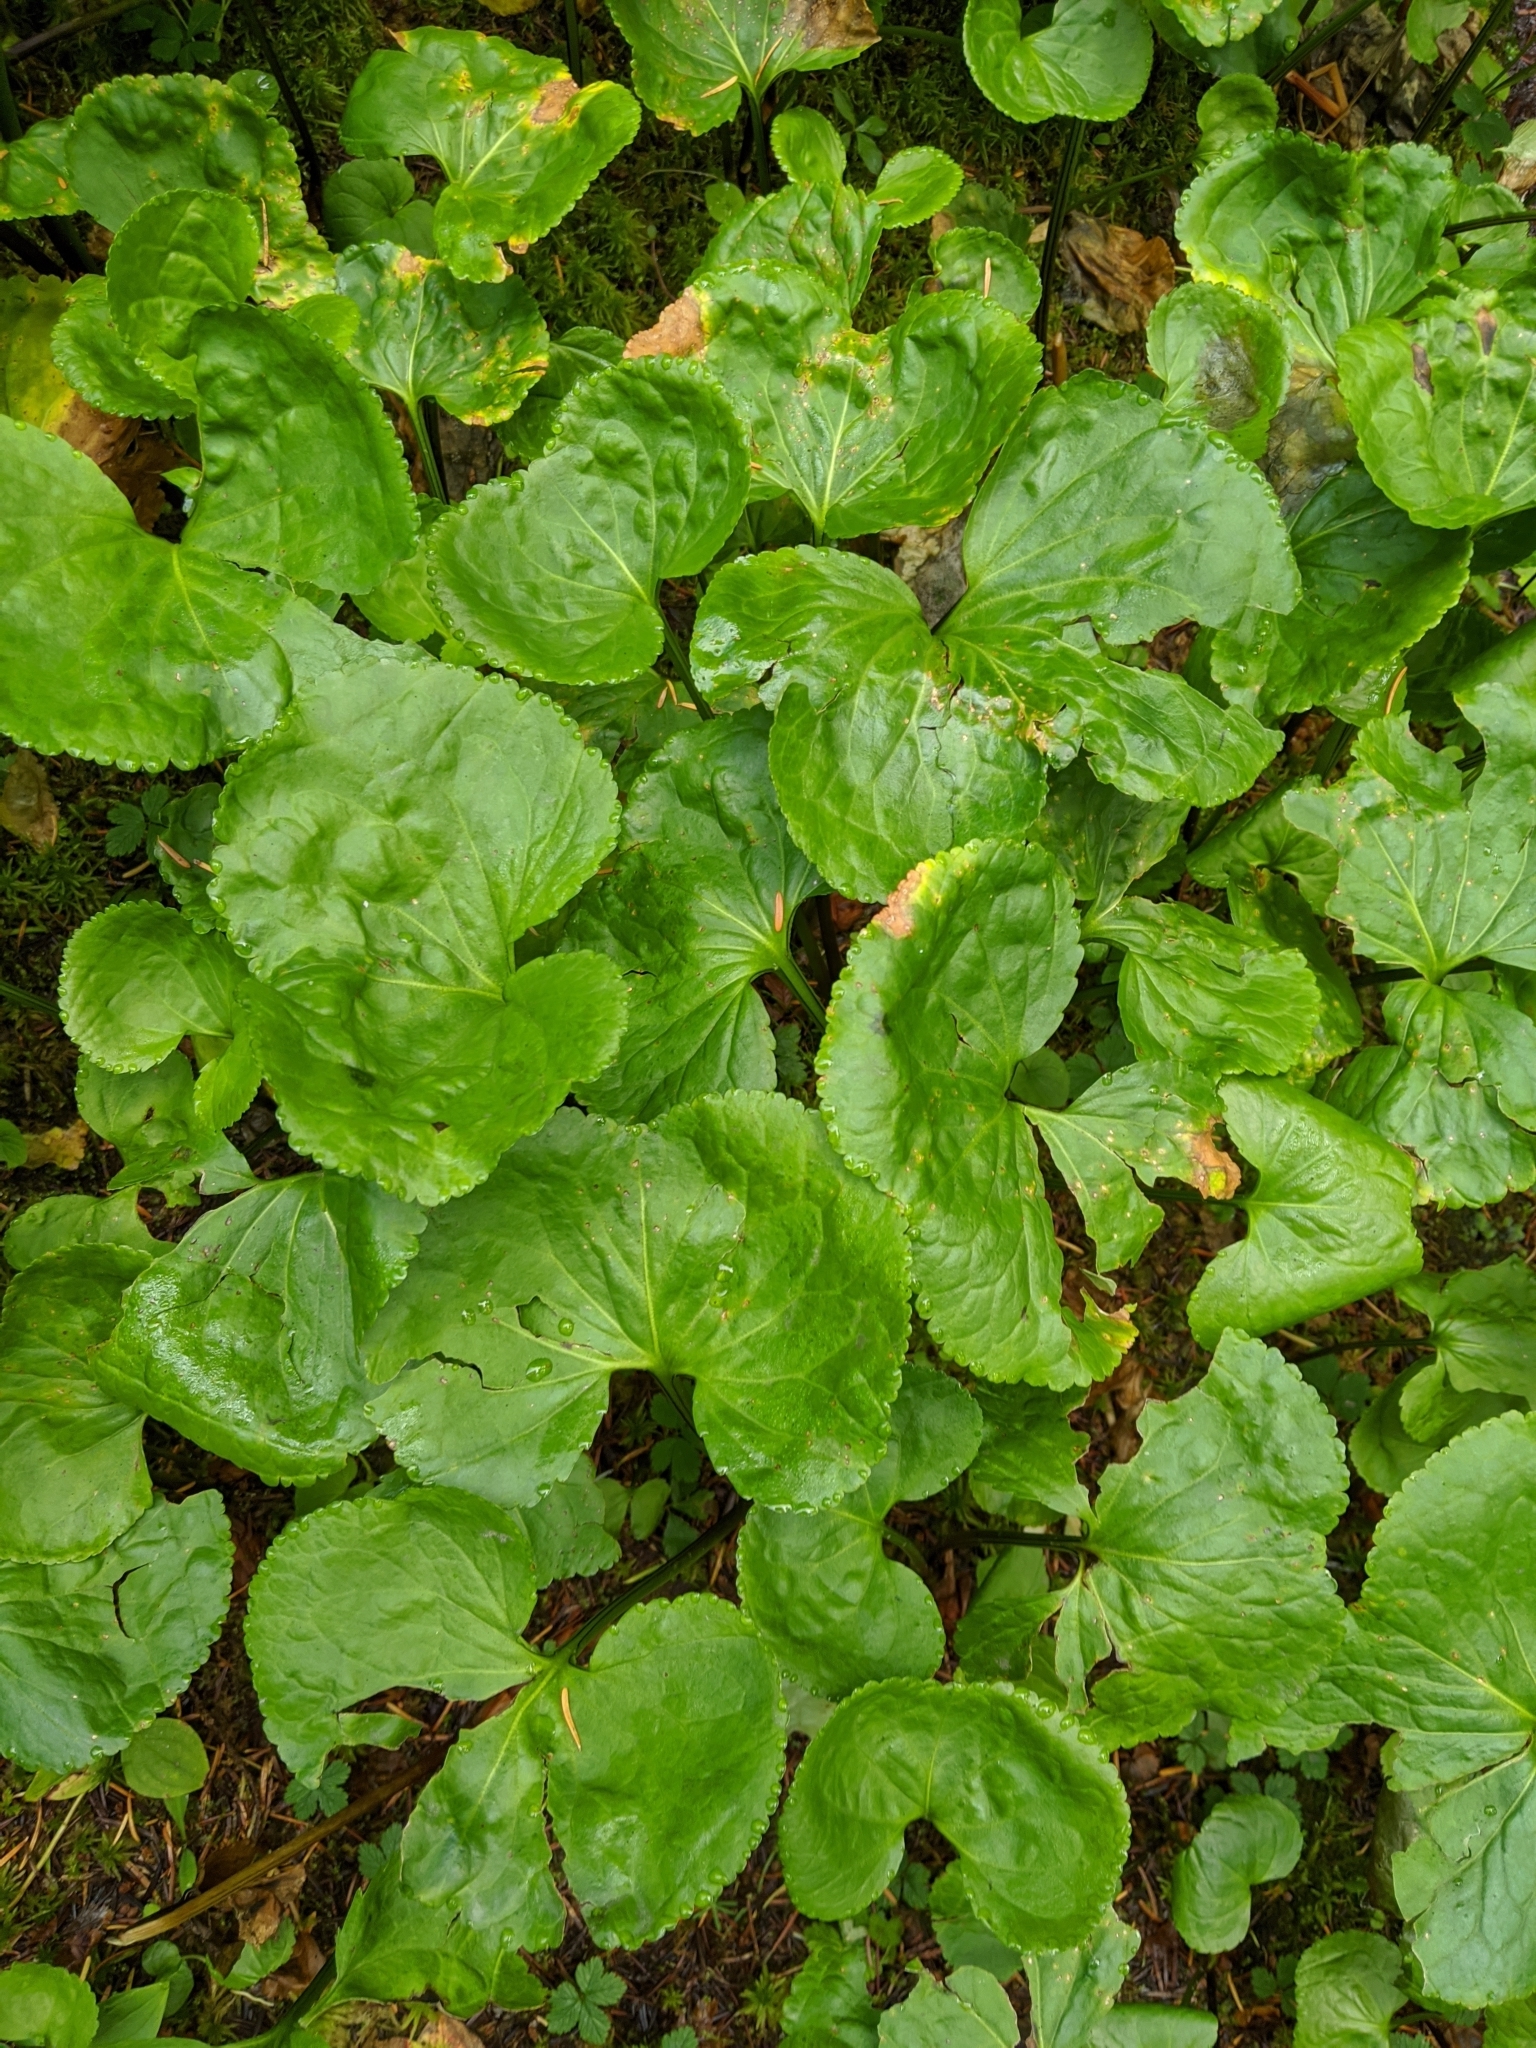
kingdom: Plantae
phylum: Tracheophyta
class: Magnoliopsida
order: Asterales
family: Menyanthaceae
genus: Nephrophyllidium
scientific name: Nephrophyllidium crista-galli
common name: Deer-cabbage
